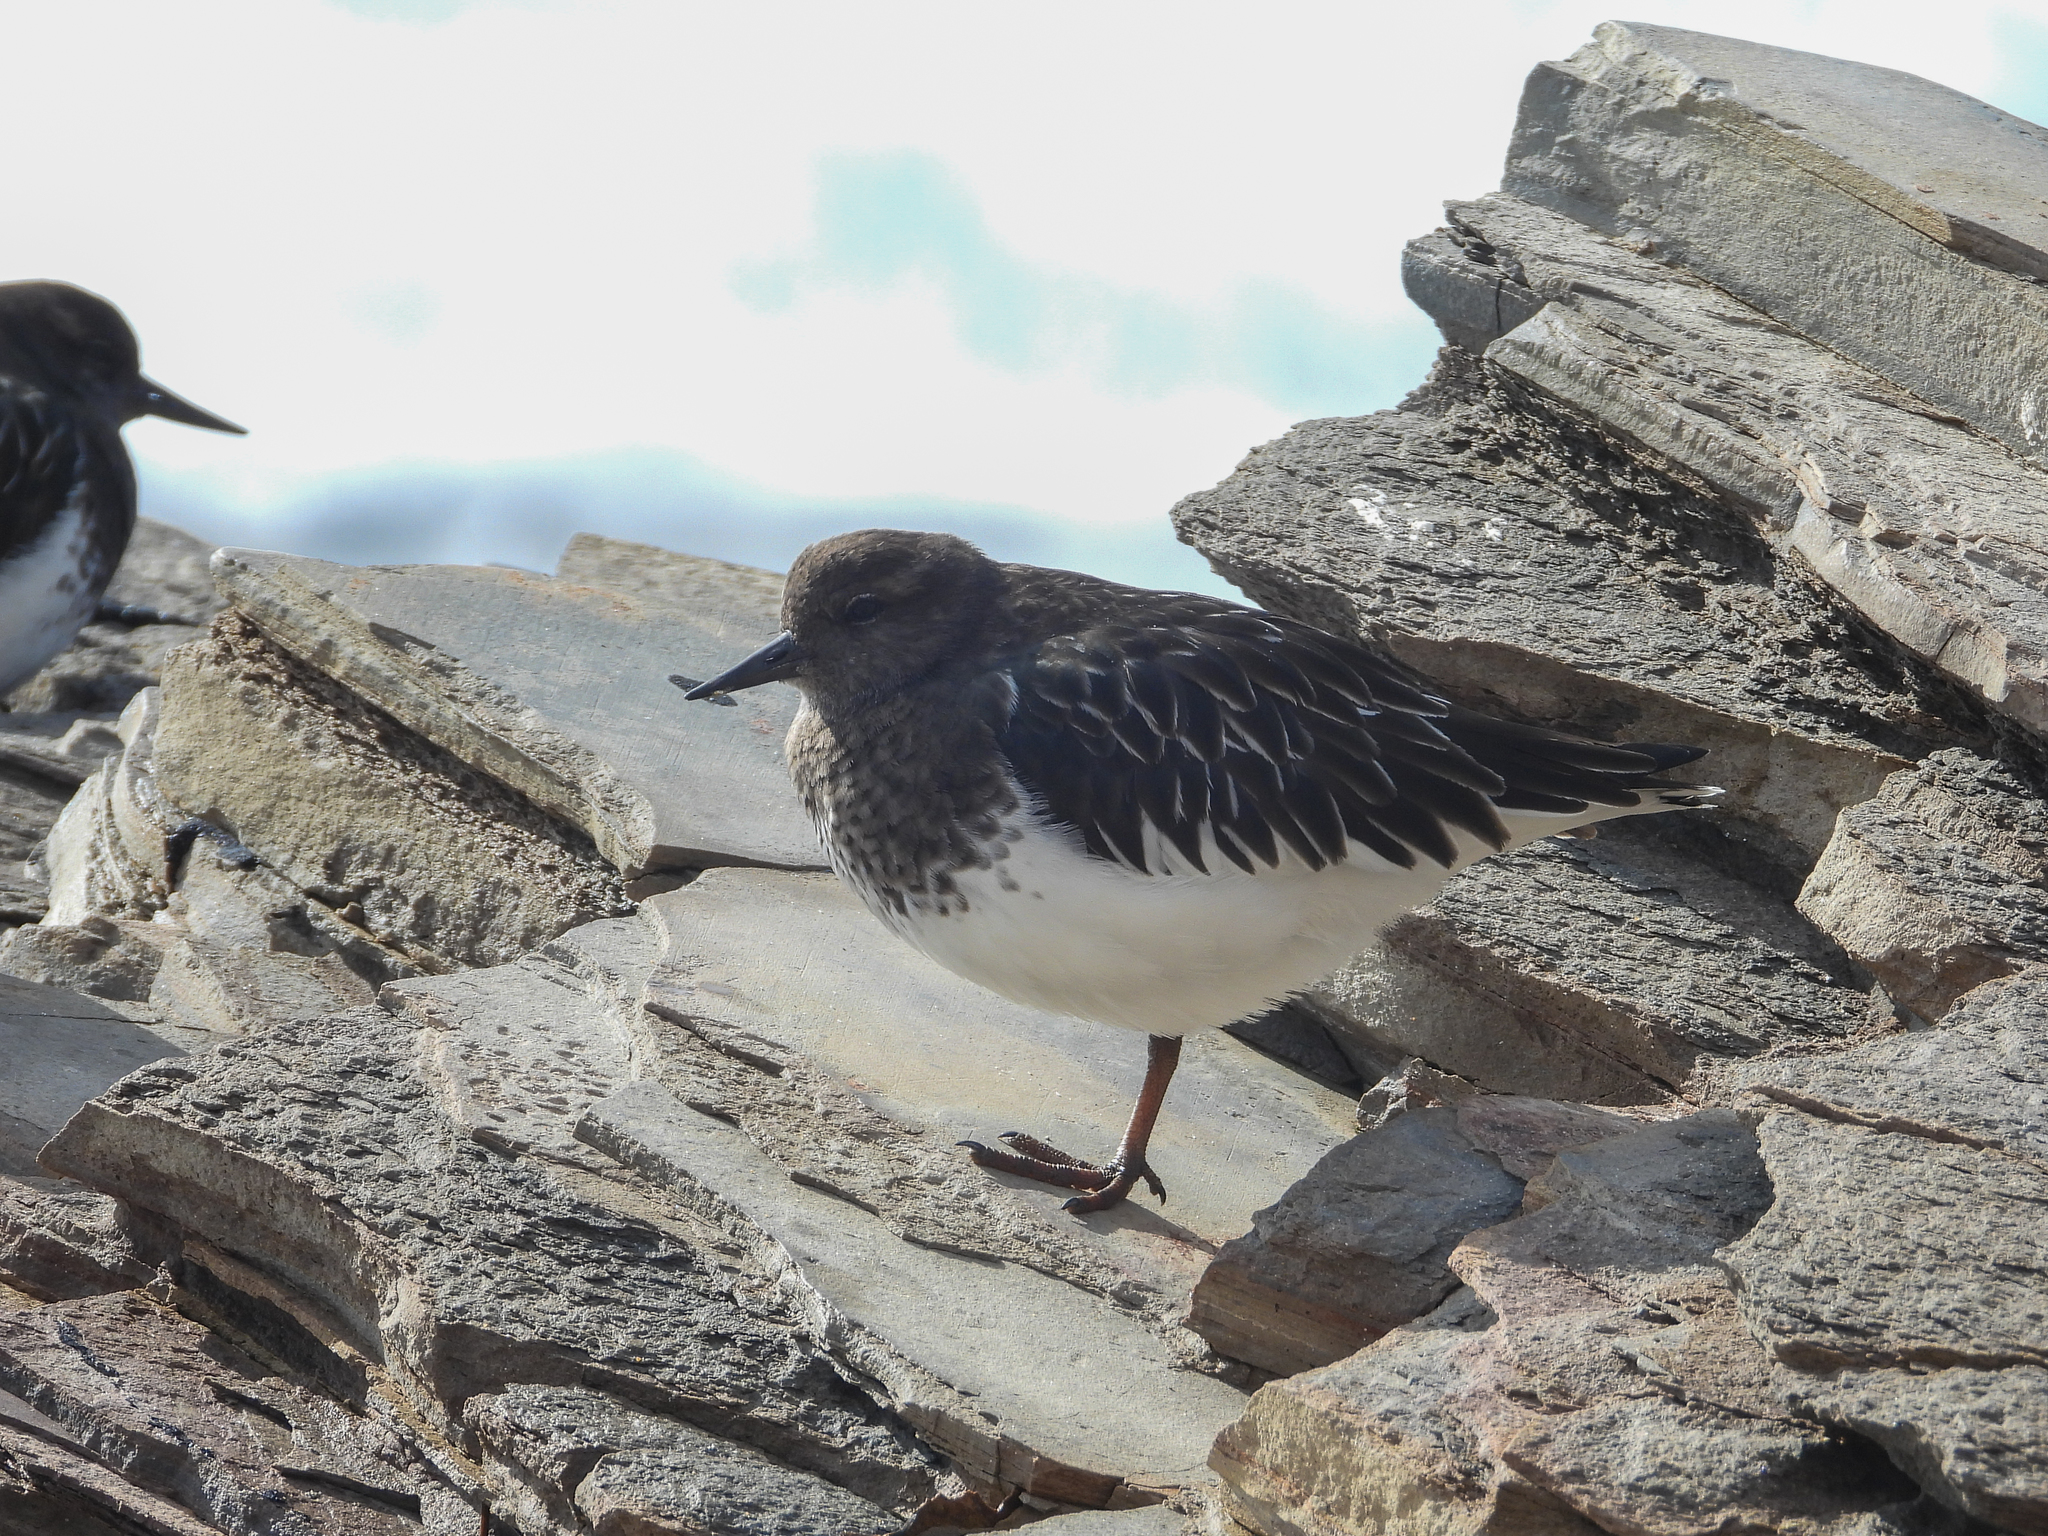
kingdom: Animalia
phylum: Chordata
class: Aves
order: Charadriiformes
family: Scolopacidae
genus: Arenaria
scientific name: Arenaria melanocephala
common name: Black turnstone
